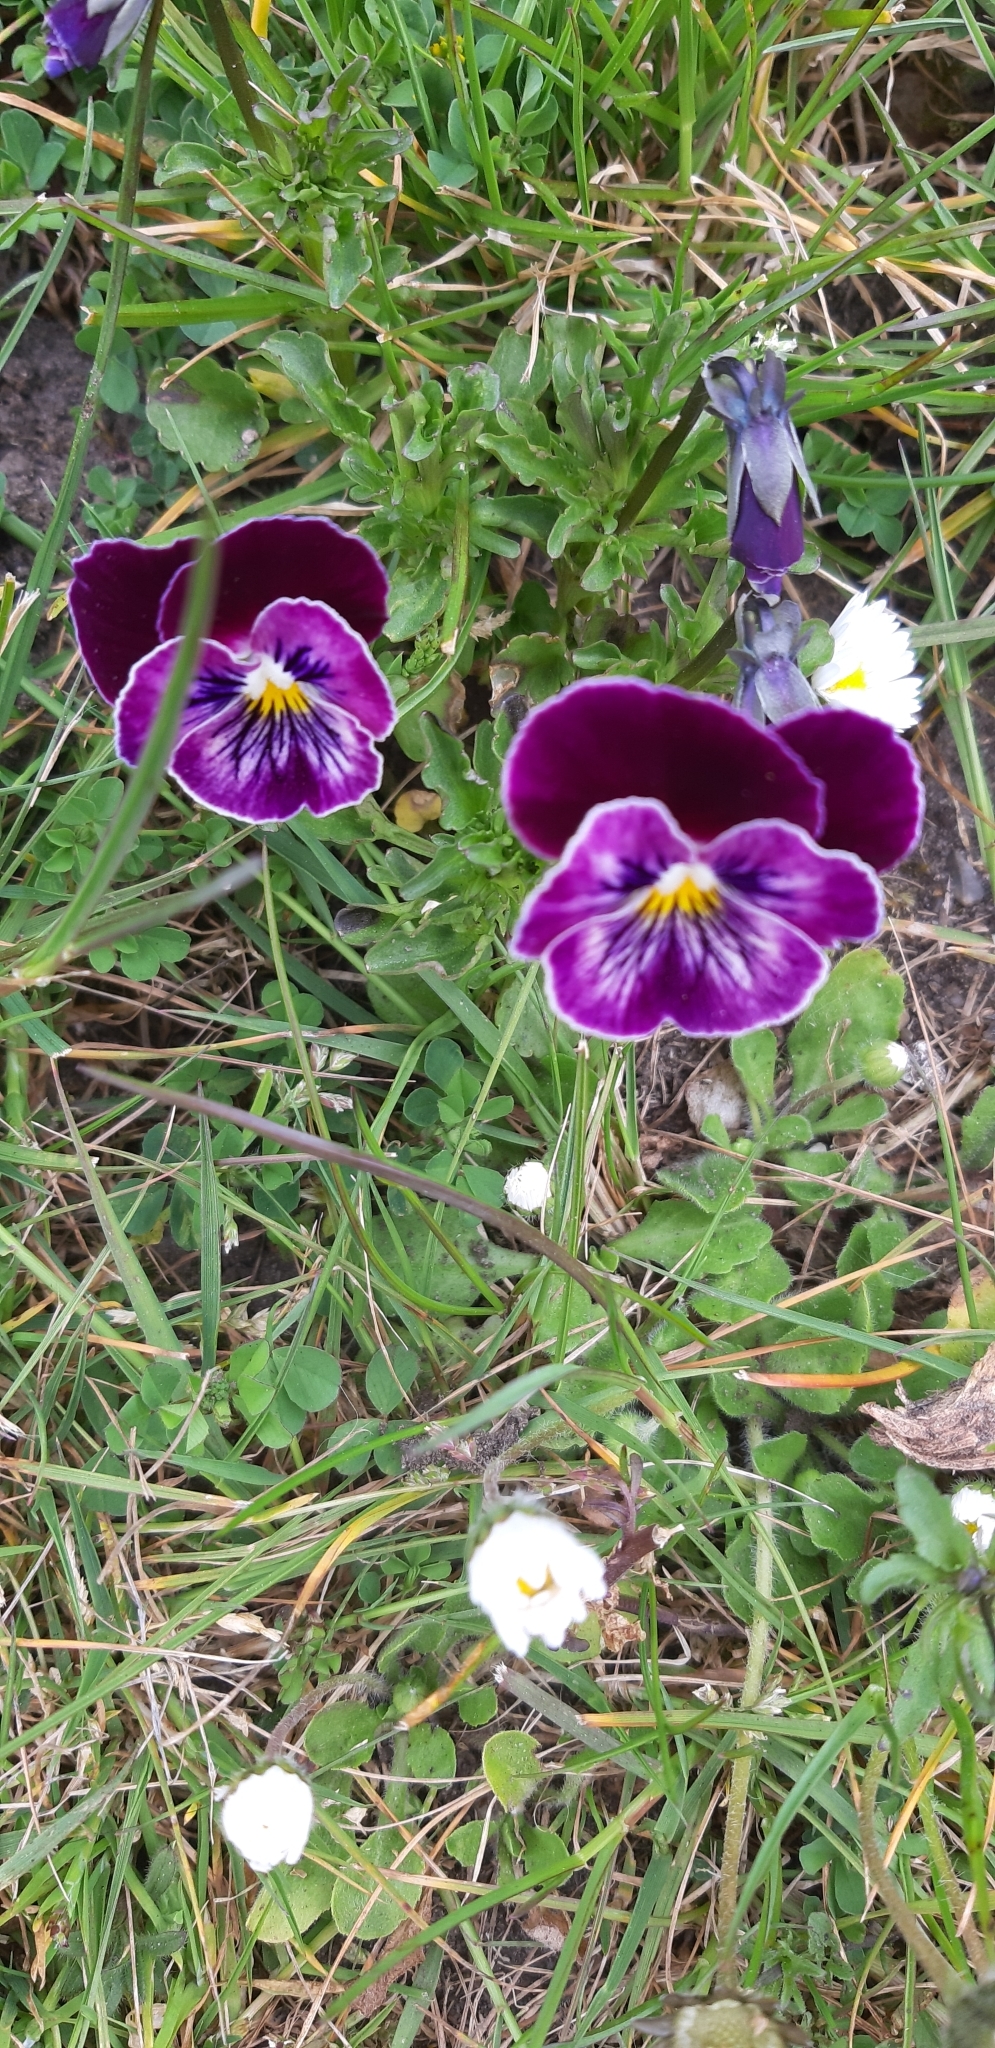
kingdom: Plantae
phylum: Tracheophyta
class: Magnoliopsida
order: Malpighiales
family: Violaceae
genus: Viola
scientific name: Viola wittrockiana
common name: Garden pansy
